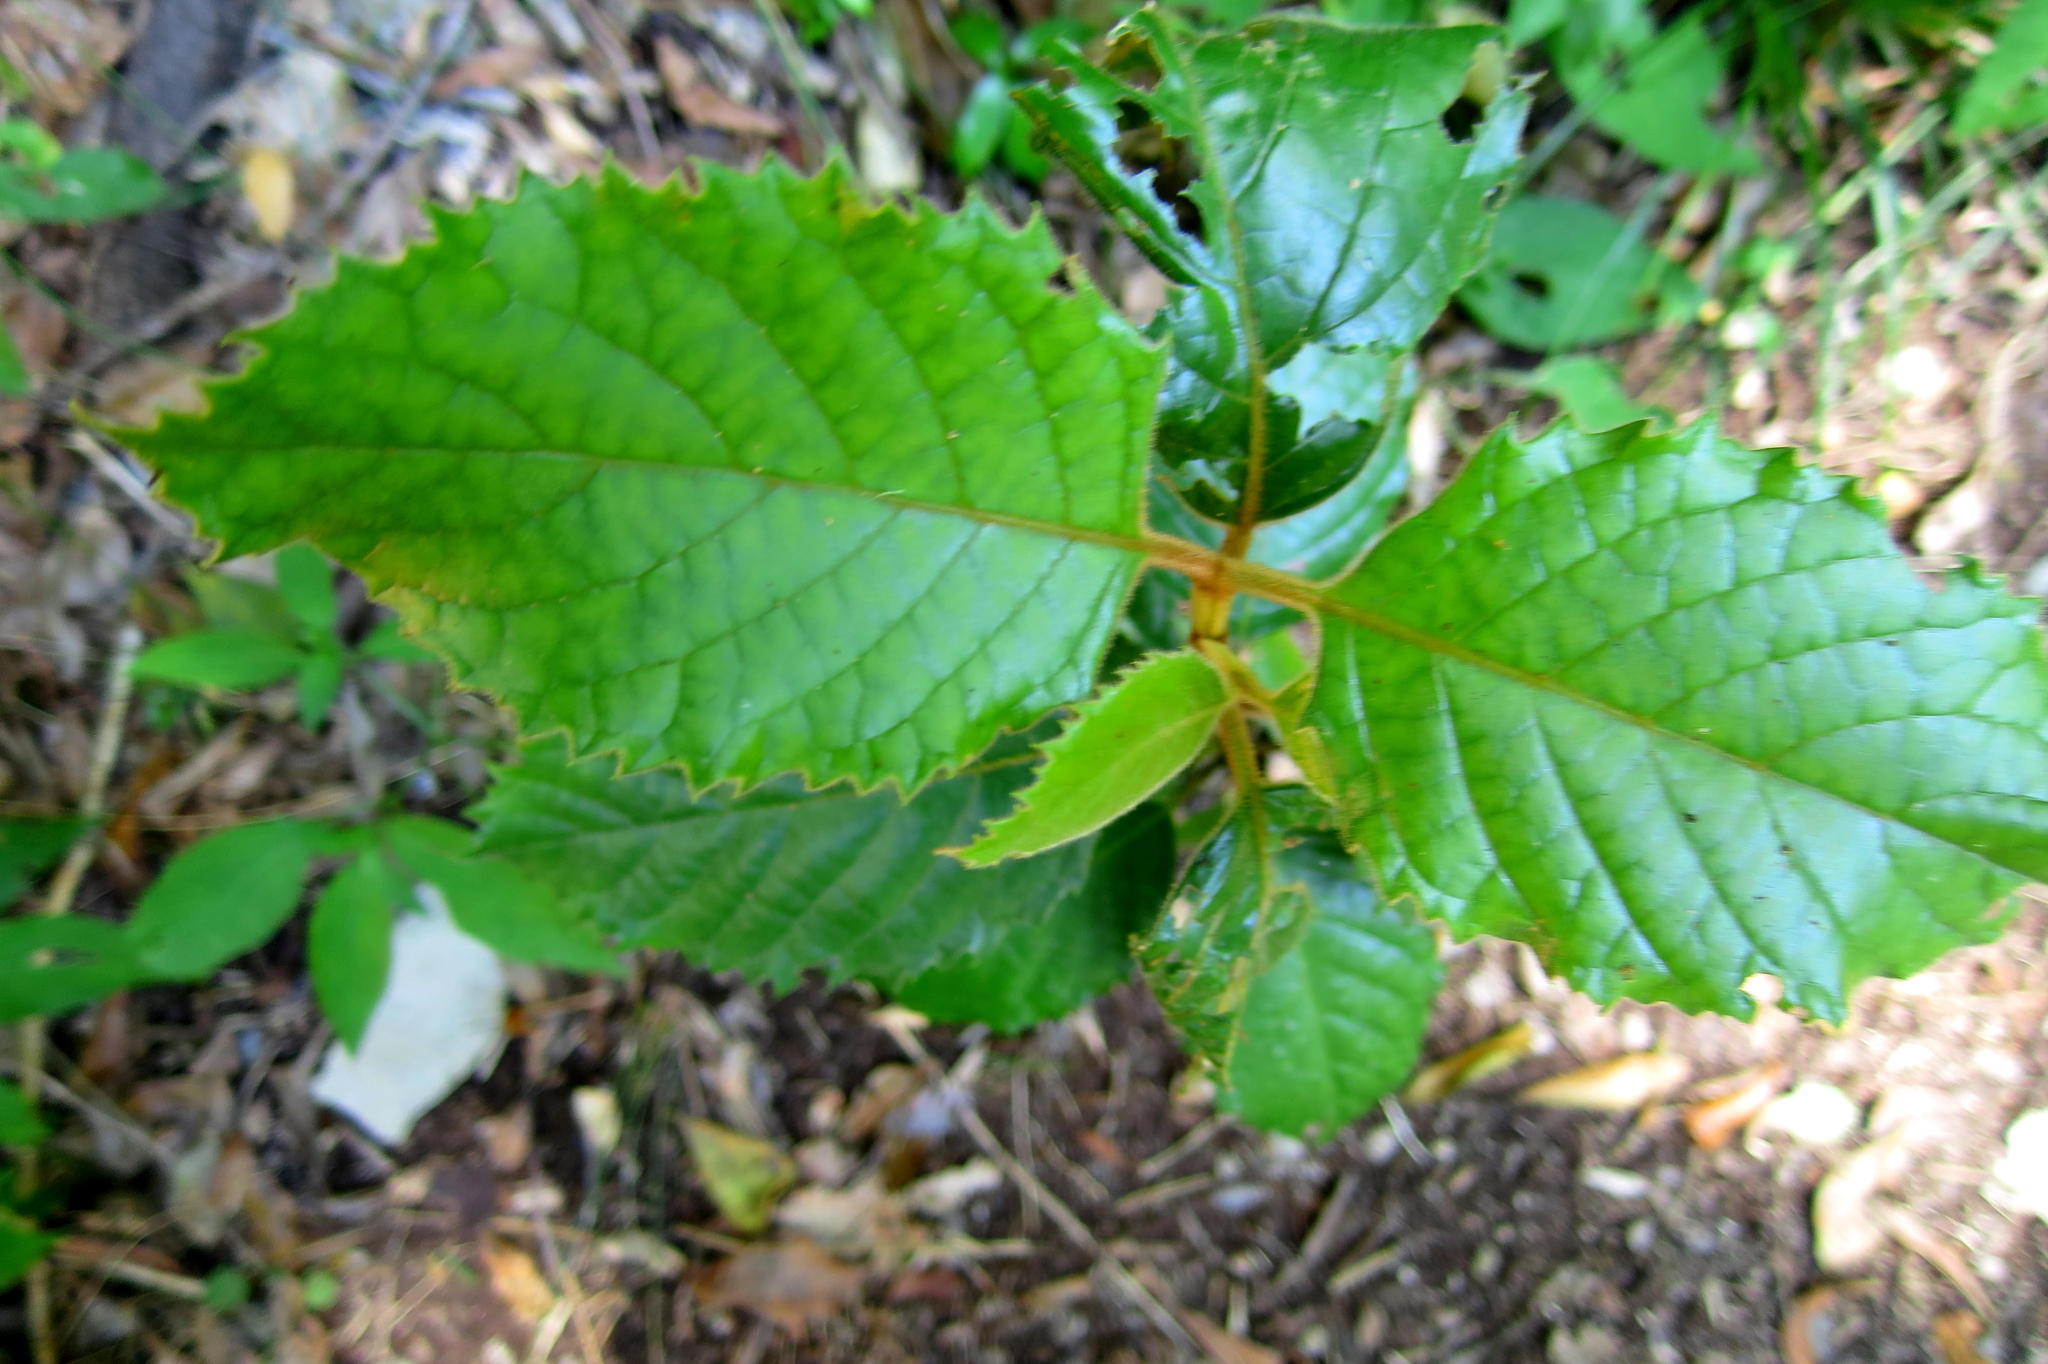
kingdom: Plantae
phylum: Tracheophyta
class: Magnoliopsida
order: Cornales
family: Curtisiaceae
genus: Curtisia
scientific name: Curtisia dentata
